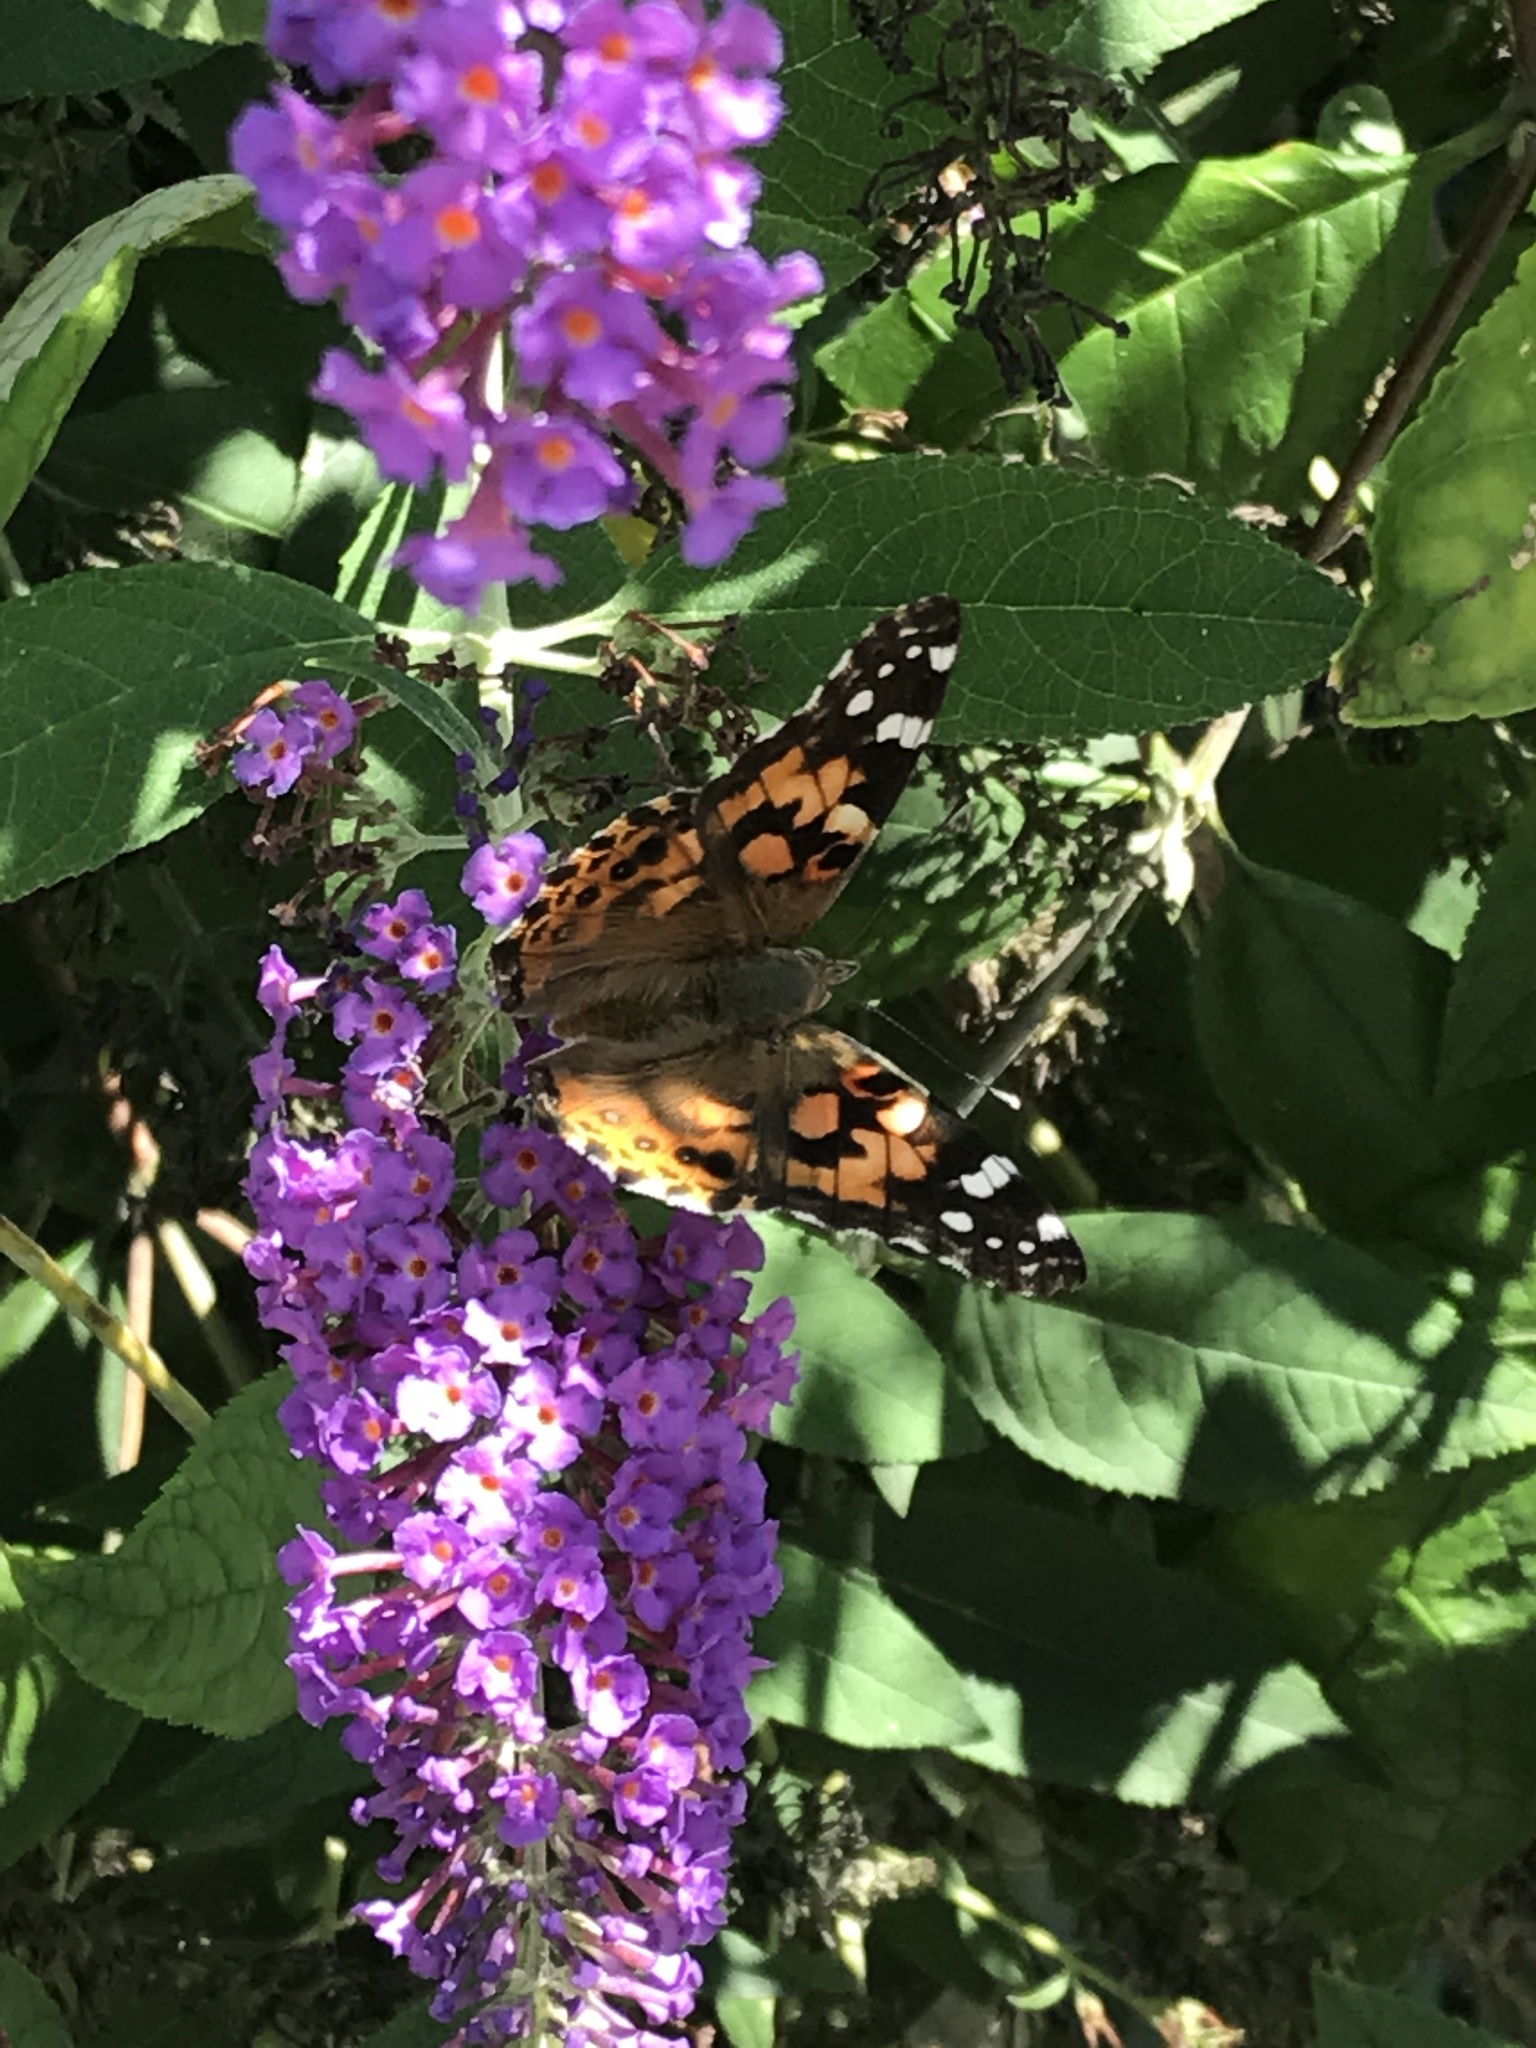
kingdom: Animalia
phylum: Arthropoda
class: Insecta
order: Lepidoptera
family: Nymphalidae
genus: Vanessa
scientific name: Vanessa cardui
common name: Painted lady
